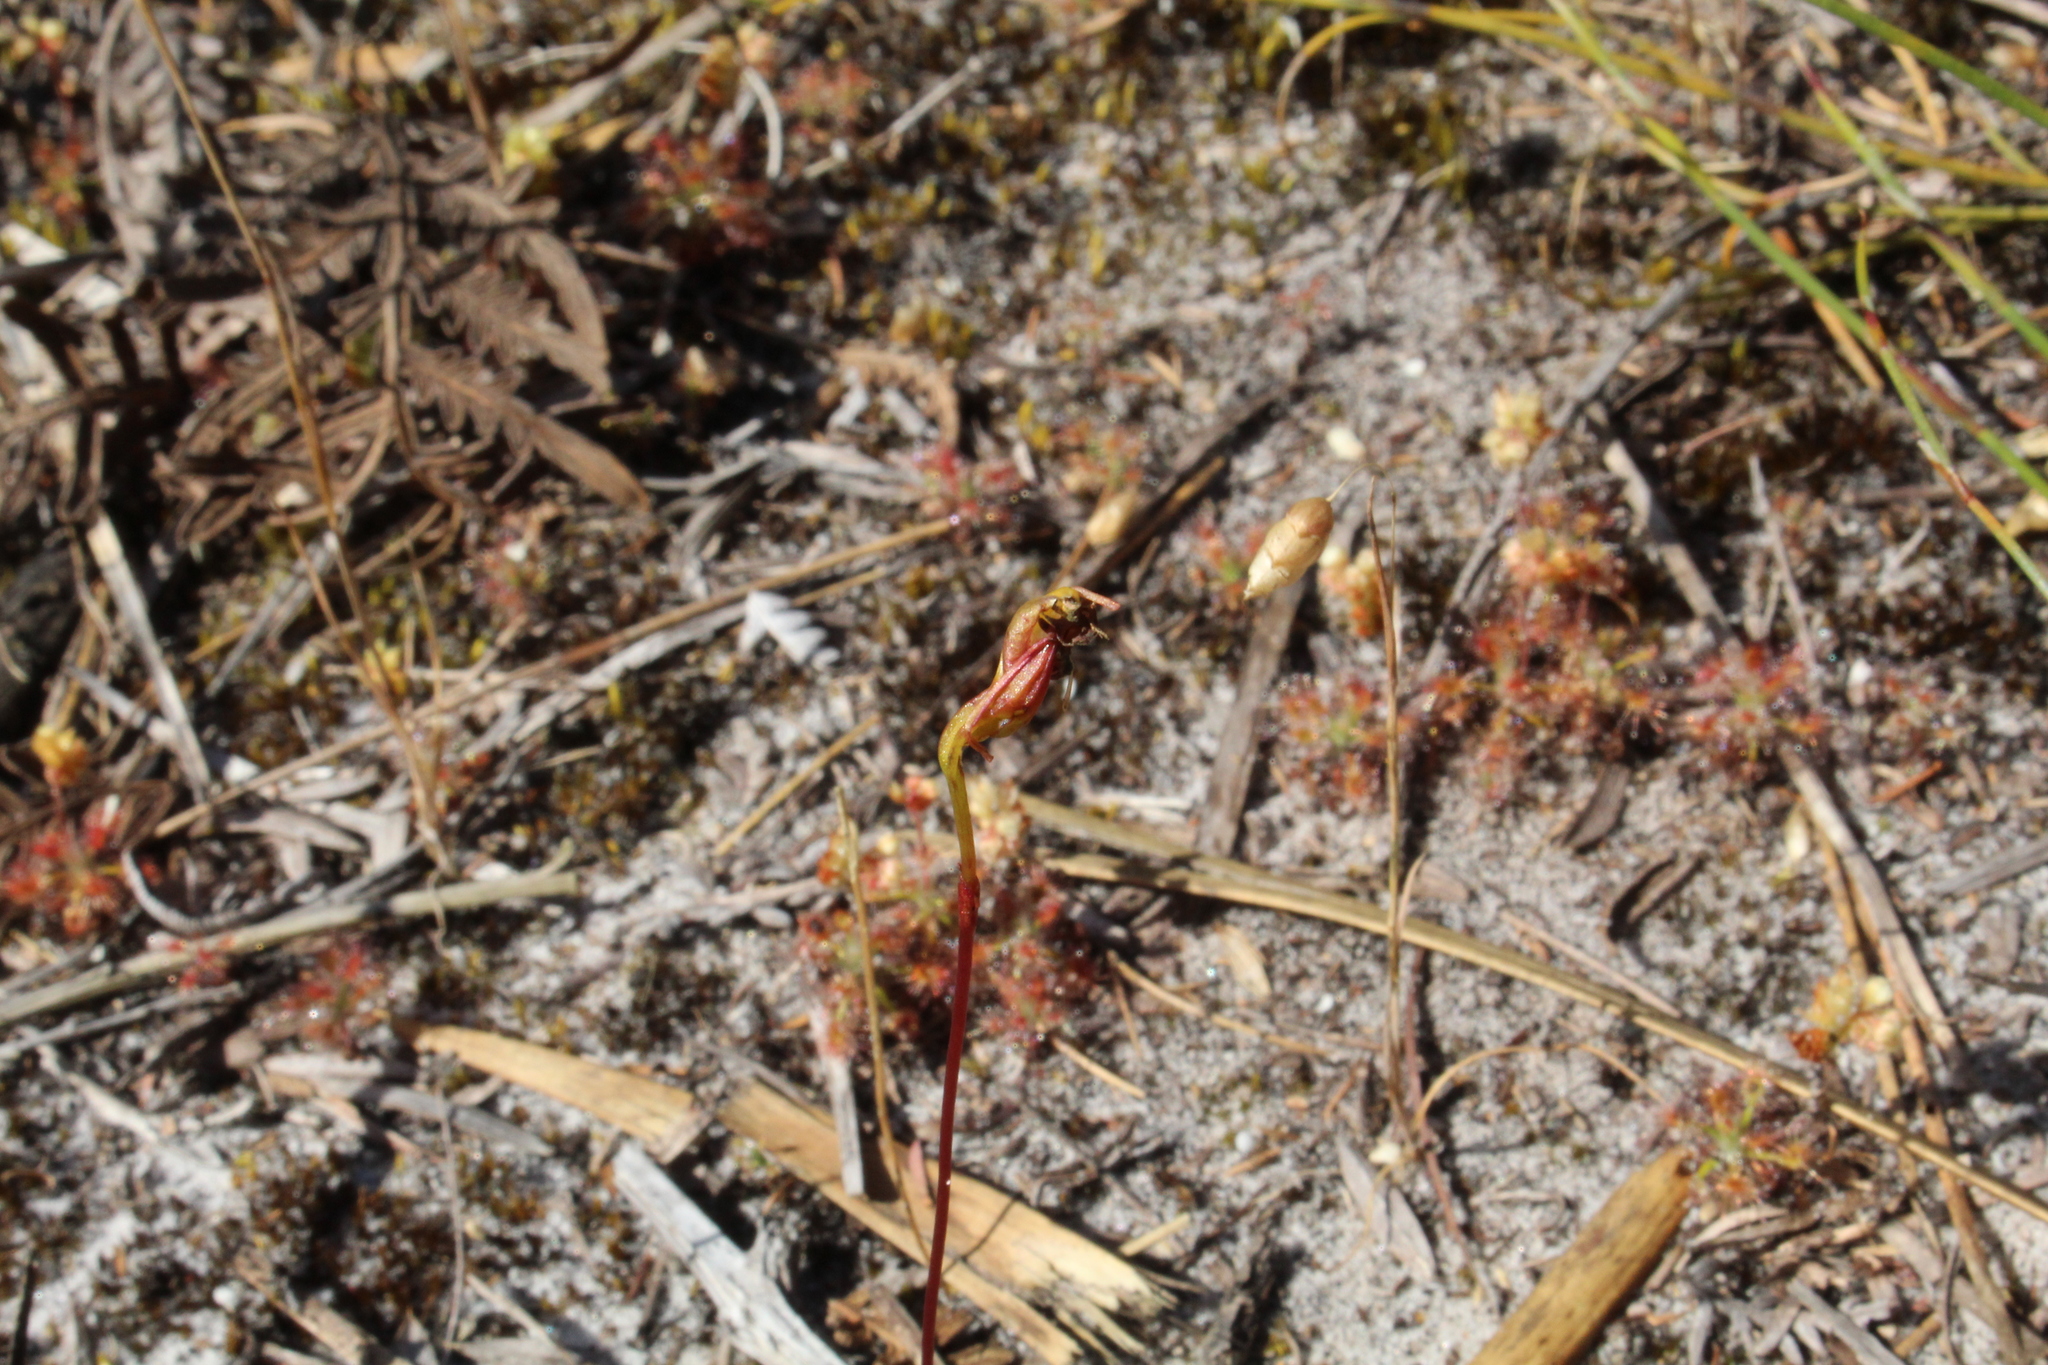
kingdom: Plantae
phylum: Tracheophyta
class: Magnoliopsida
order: Caryophyllales
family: Droseraceae
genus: Drosera
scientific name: Drosera pulchella
